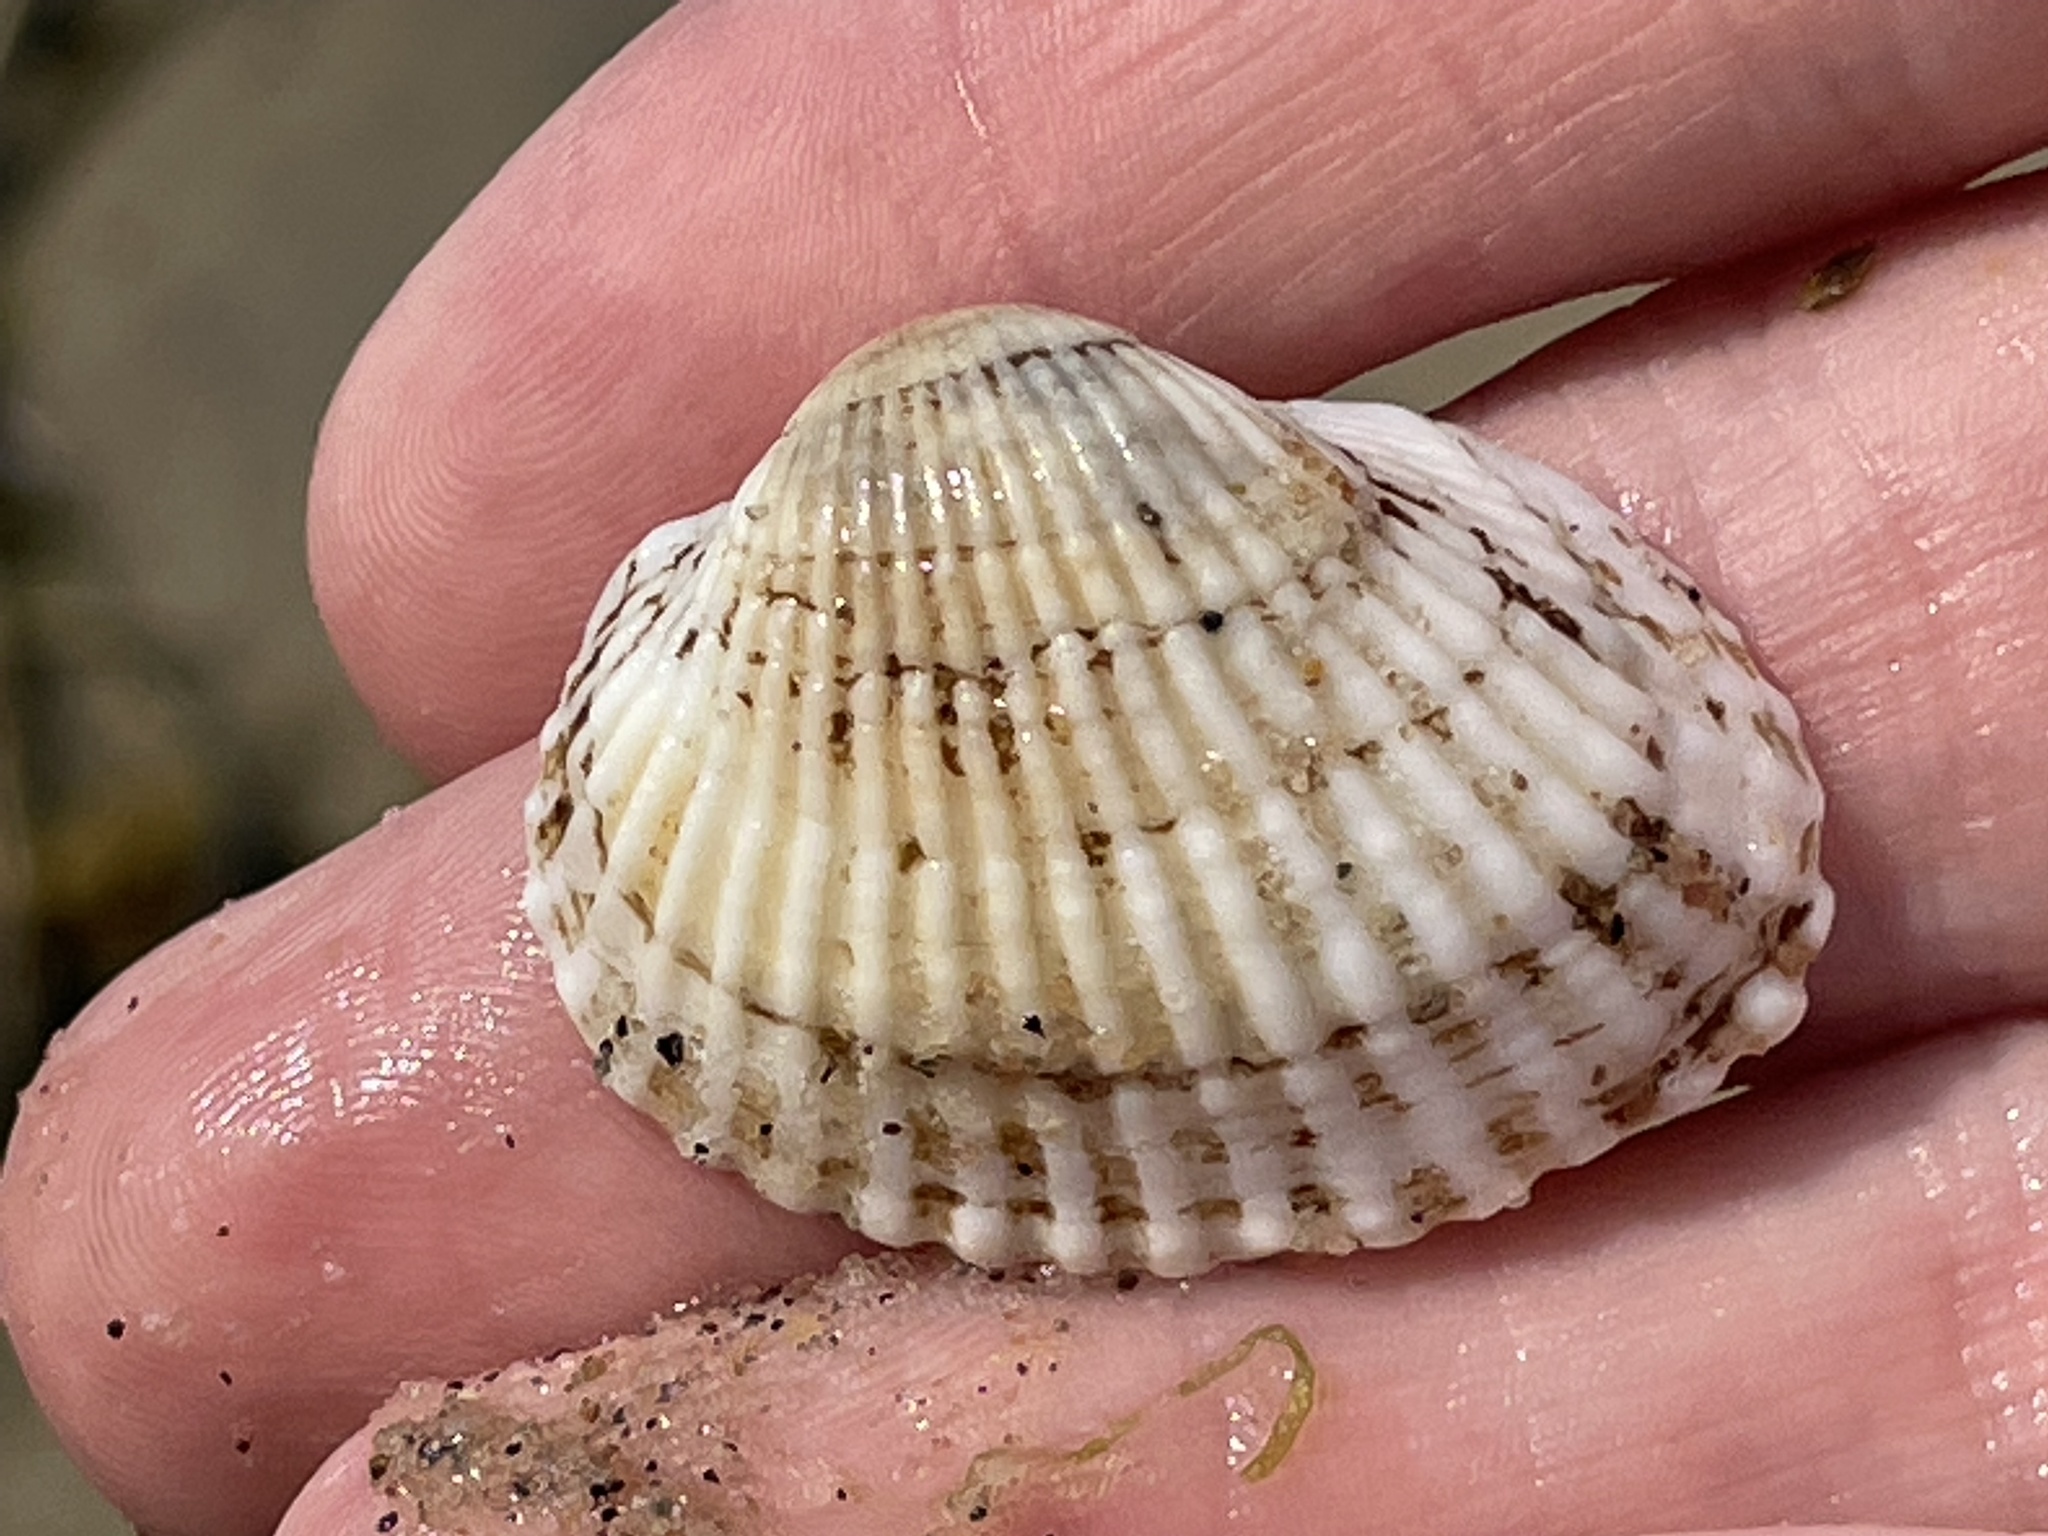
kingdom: Animalia
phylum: Mollusca
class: Bivalvia
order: Arcida
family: Arcidae
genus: Anadara
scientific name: Anadara transversa
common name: Transverse ark
